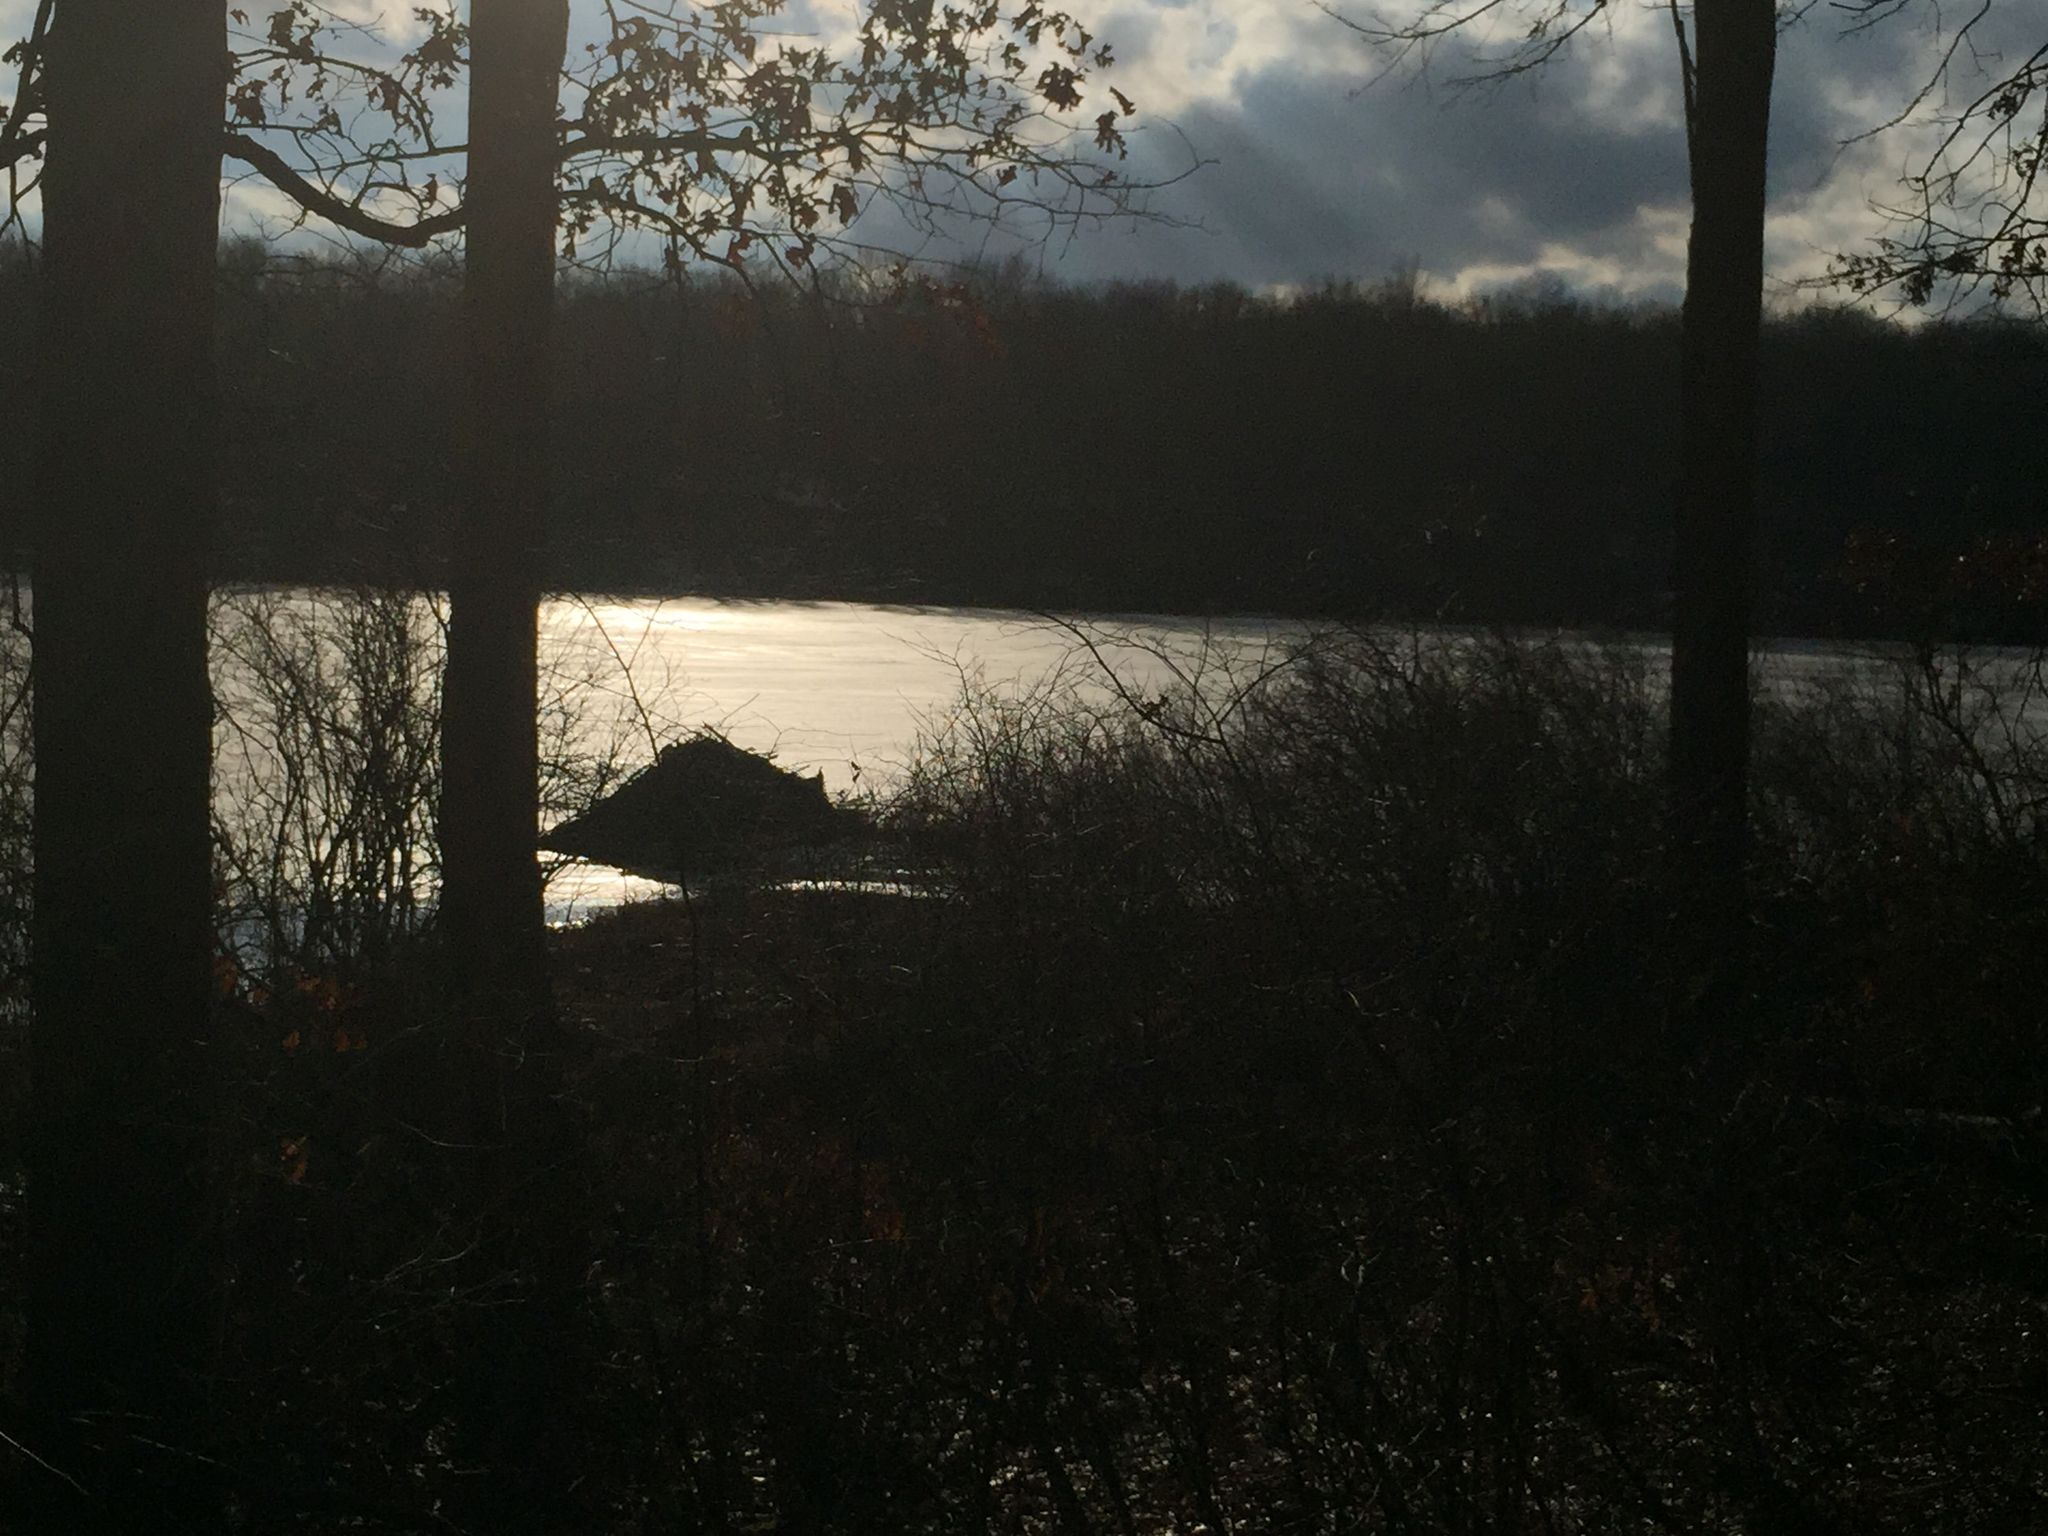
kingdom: Animalia
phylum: Chordata
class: Mammalia
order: Rodentia
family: Castoridae
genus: Castor
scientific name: Castor canadensis
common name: American beaver
